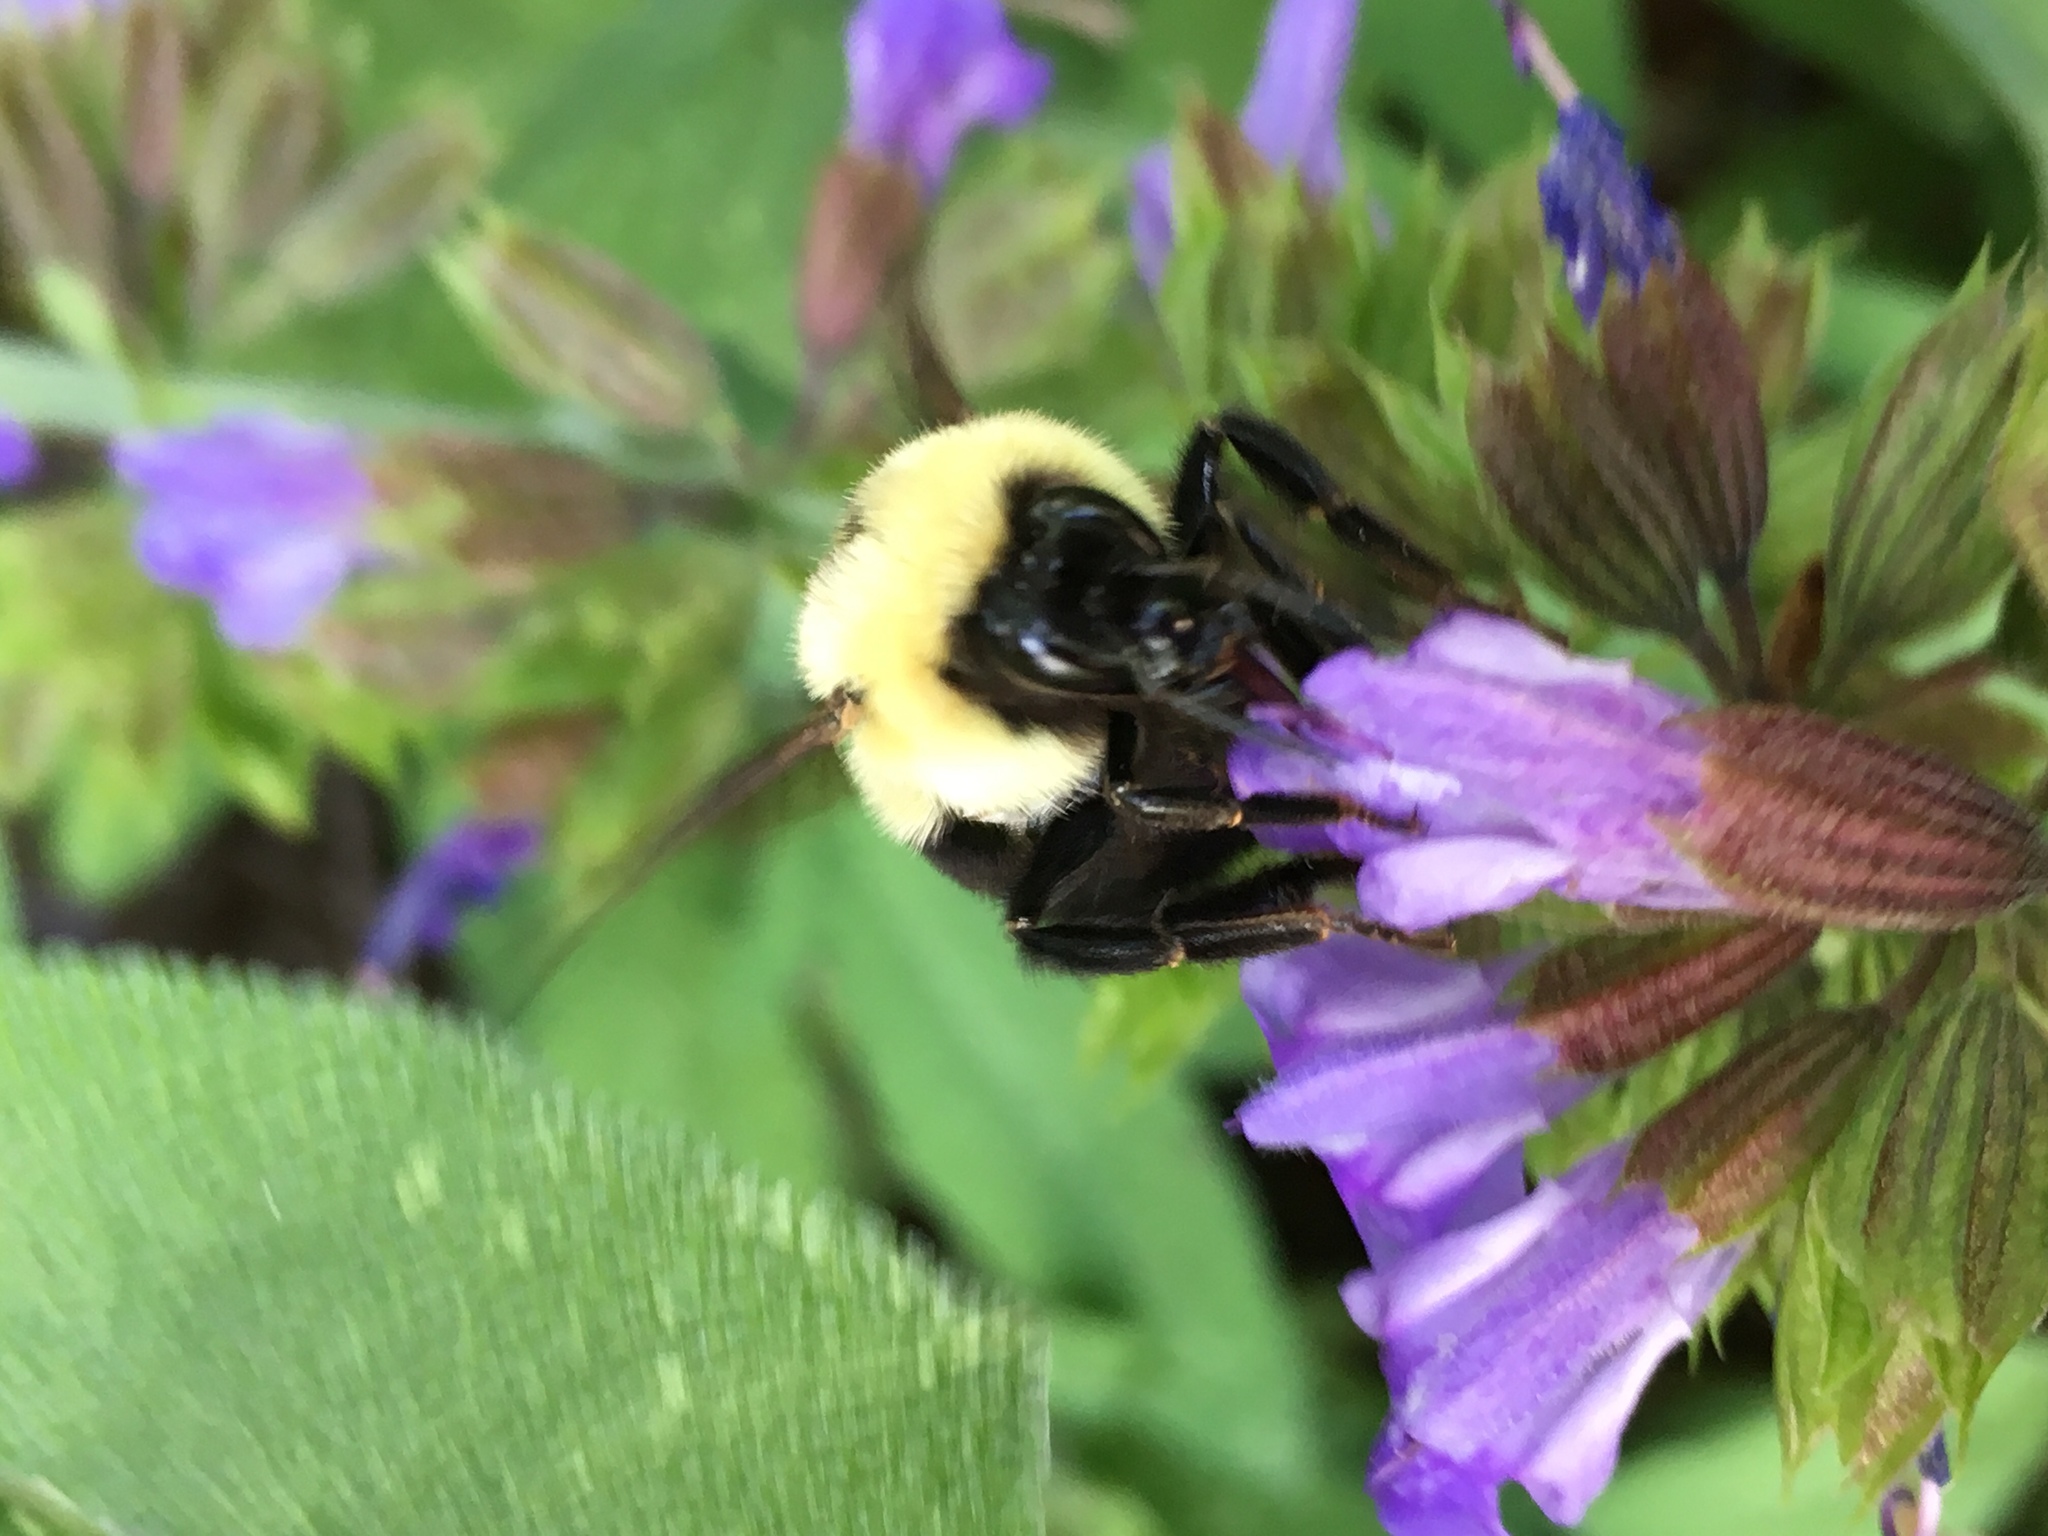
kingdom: Animalia
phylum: Arthropoda
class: Insecta
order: Hymenoptera
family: Apidae
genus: Bombus
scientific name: Bombus bimaculatus
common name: Two-spotted bumble bee
